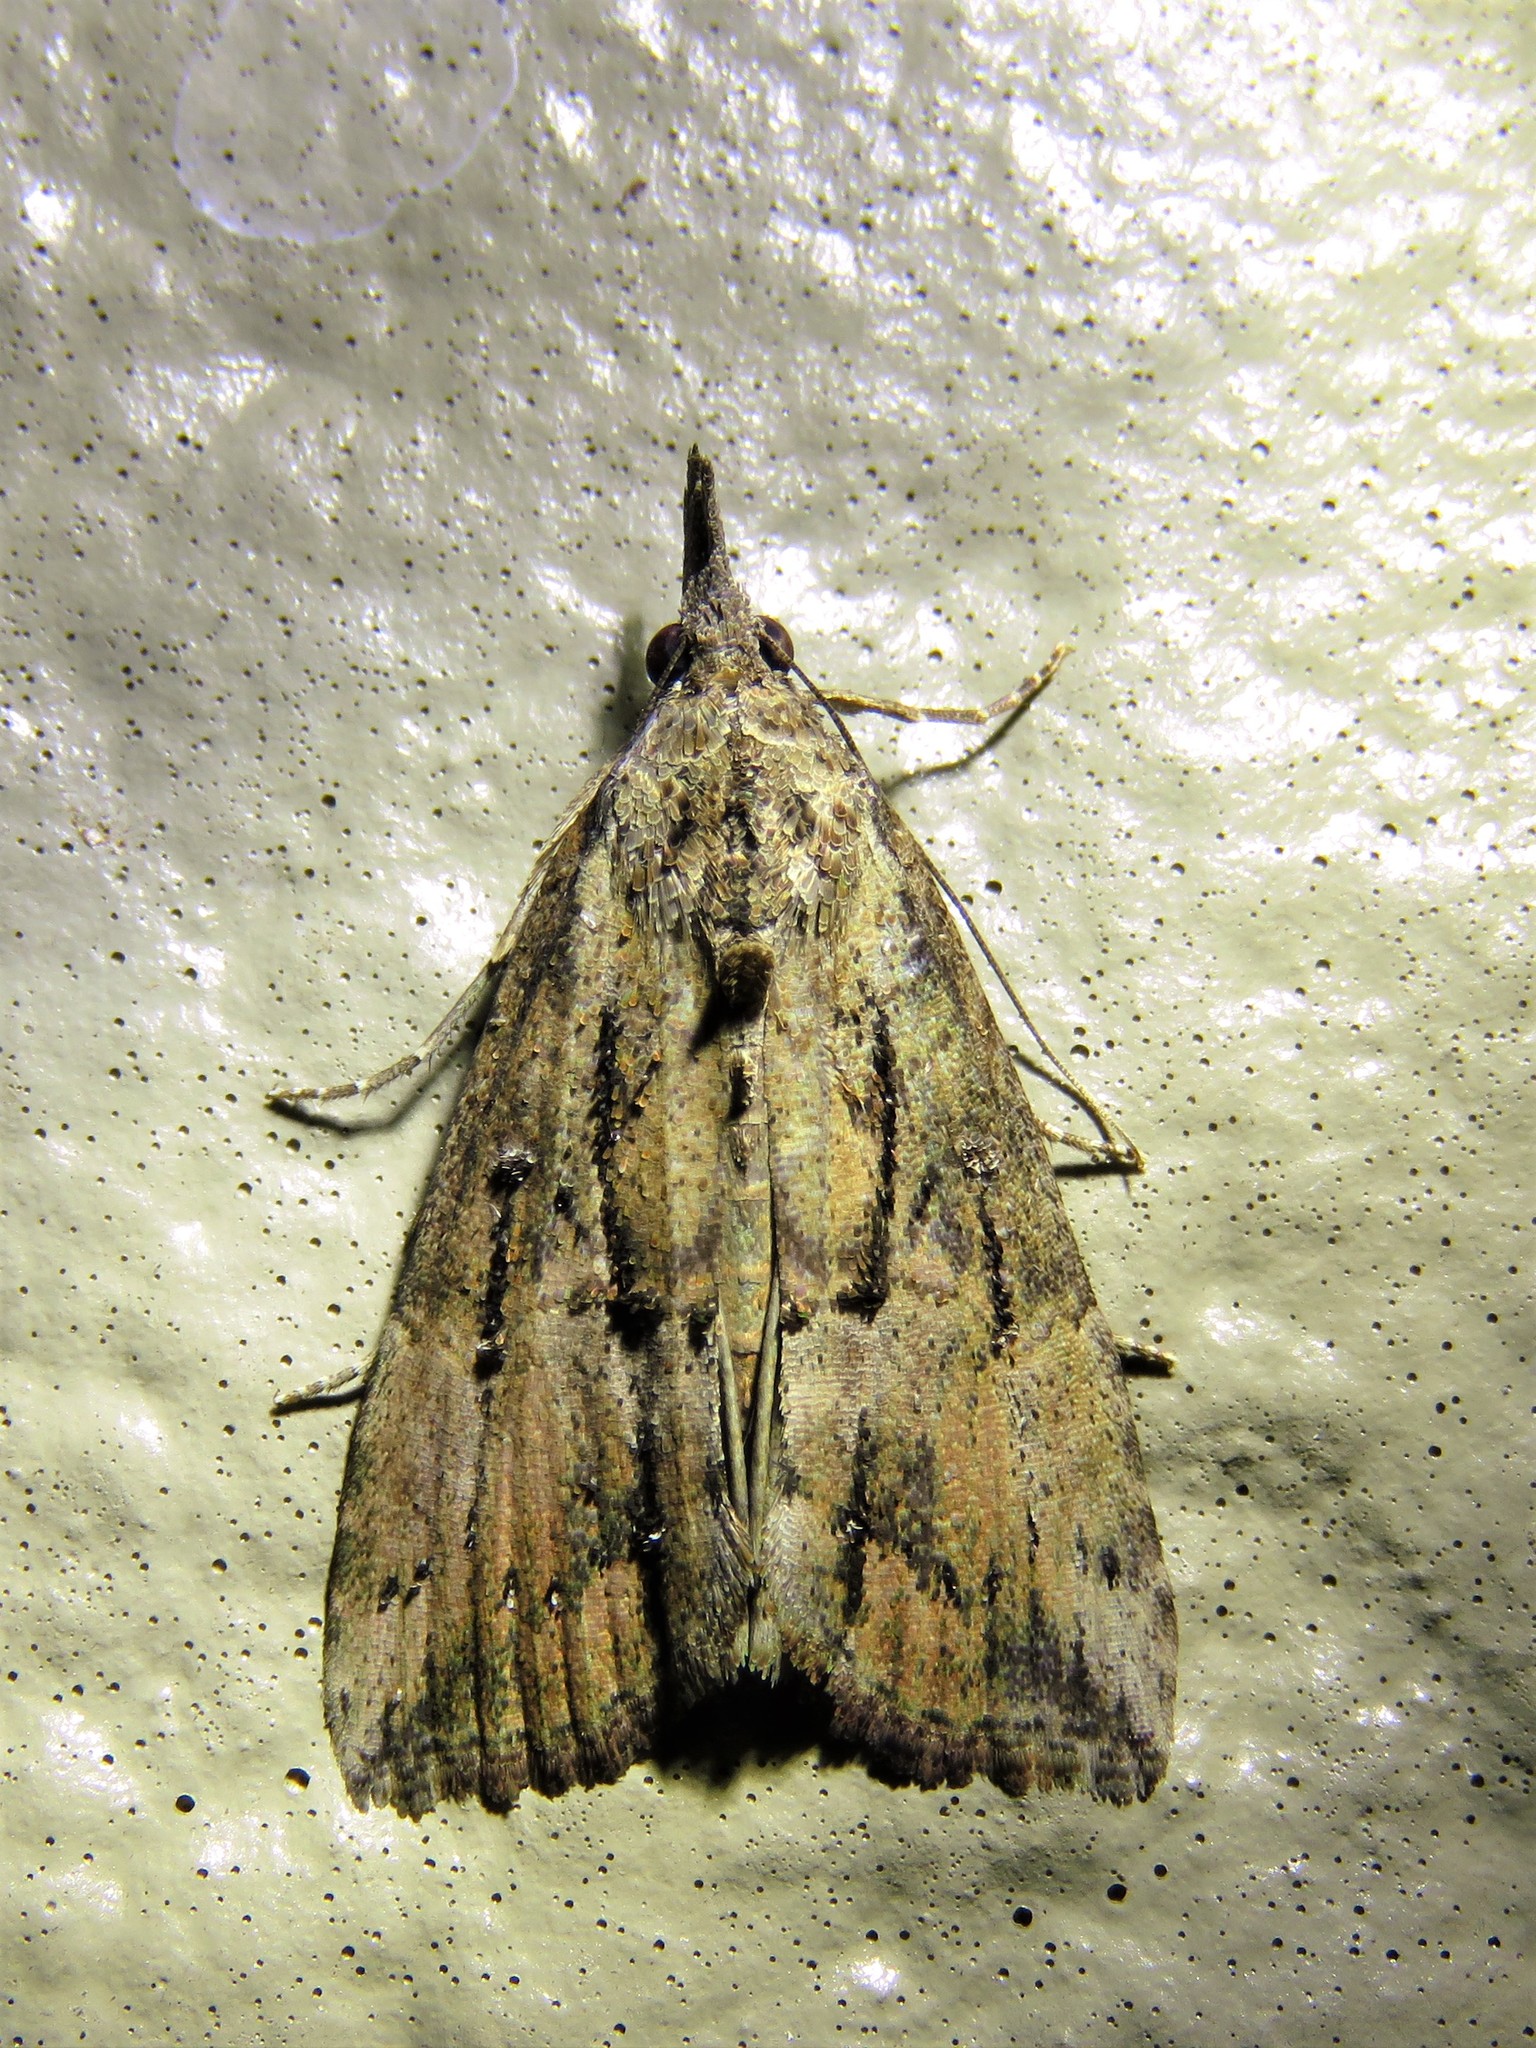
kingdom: Animalia
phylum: Arthropoda
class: Insecta
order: Lepidoptera
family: Erebidae
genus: Hypena
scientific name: Hypena scabra
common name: Green cloverworm
